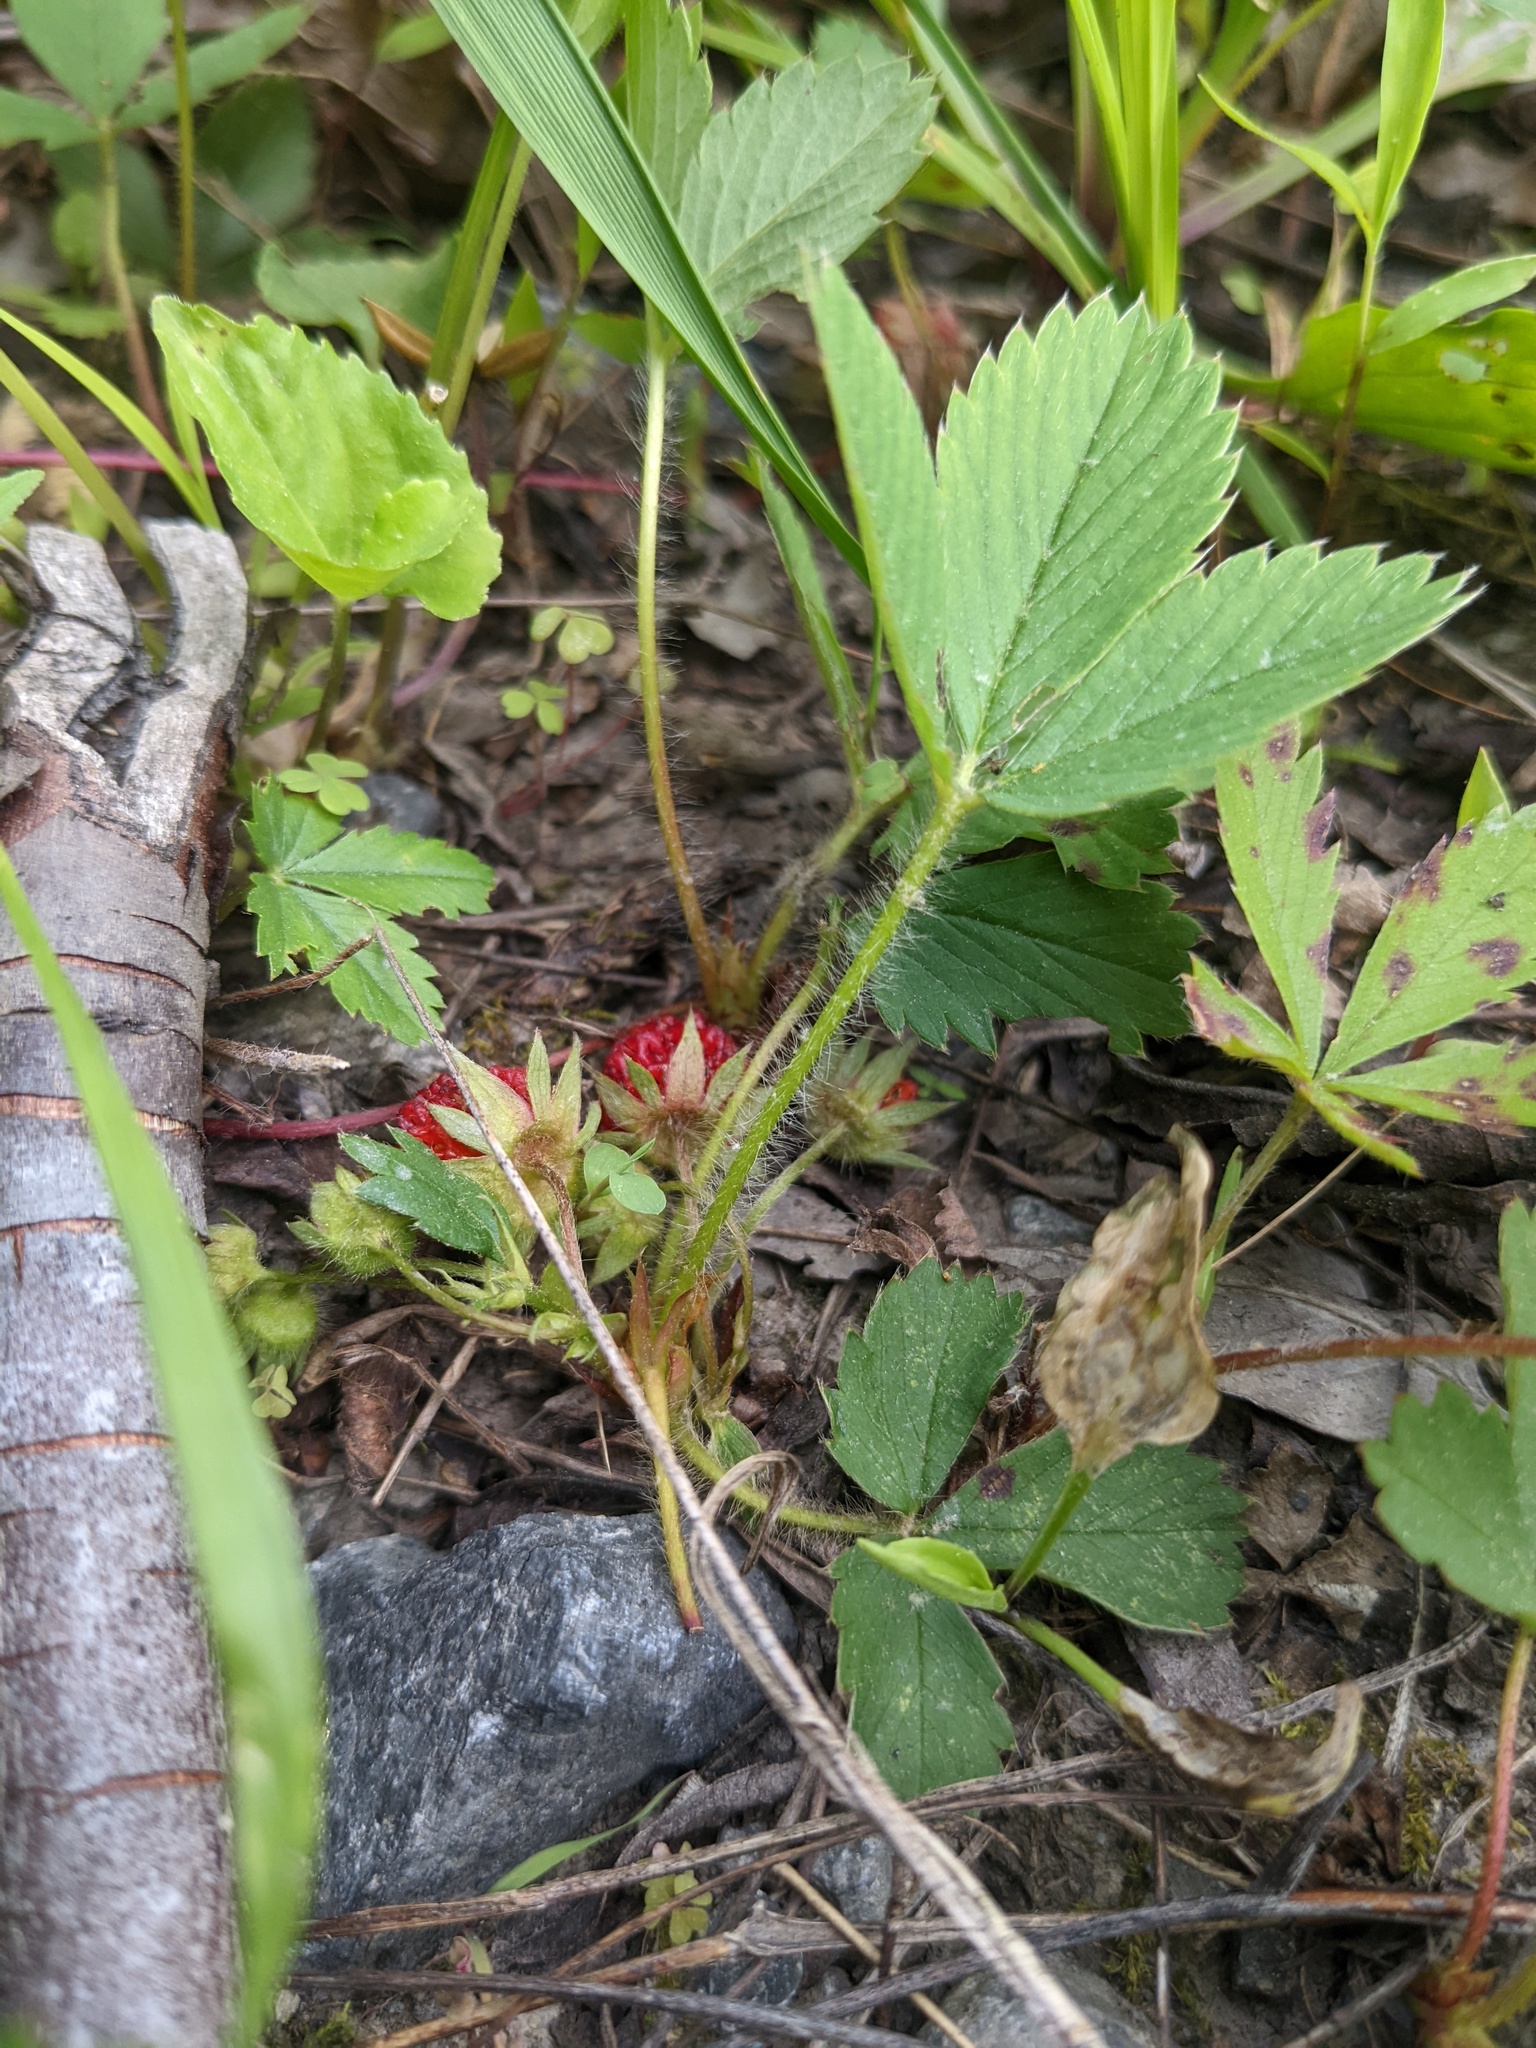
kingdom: Plantae
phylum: Tracheophyta
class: Magnoliopsida
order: Rosales
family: Rosaceae
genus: Fragaria
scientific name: Fragaria virginiana
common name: Thickleaved wild strawberry
